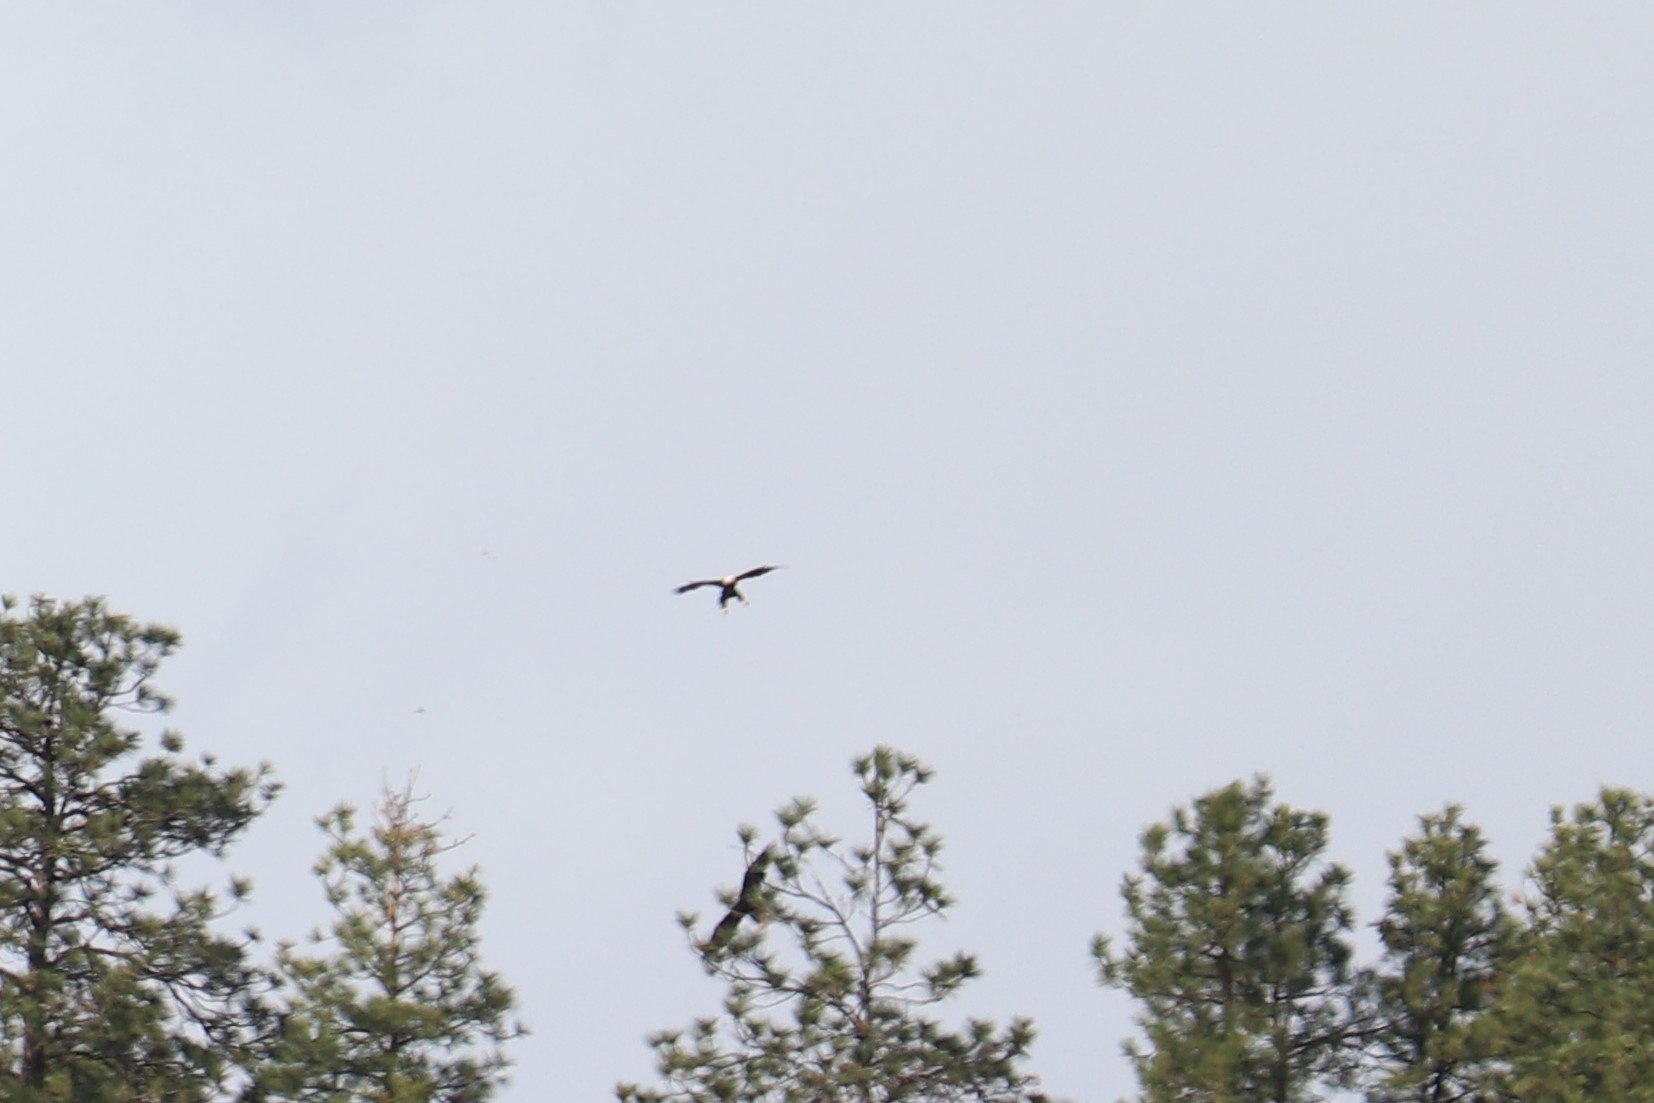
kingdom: Animalia
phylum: Chordata
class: Aves
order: Accipitriformes
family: Accipitridae
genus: Haliaeetus
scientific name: Haliaeetus leucocephalus
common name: Bald eagle
